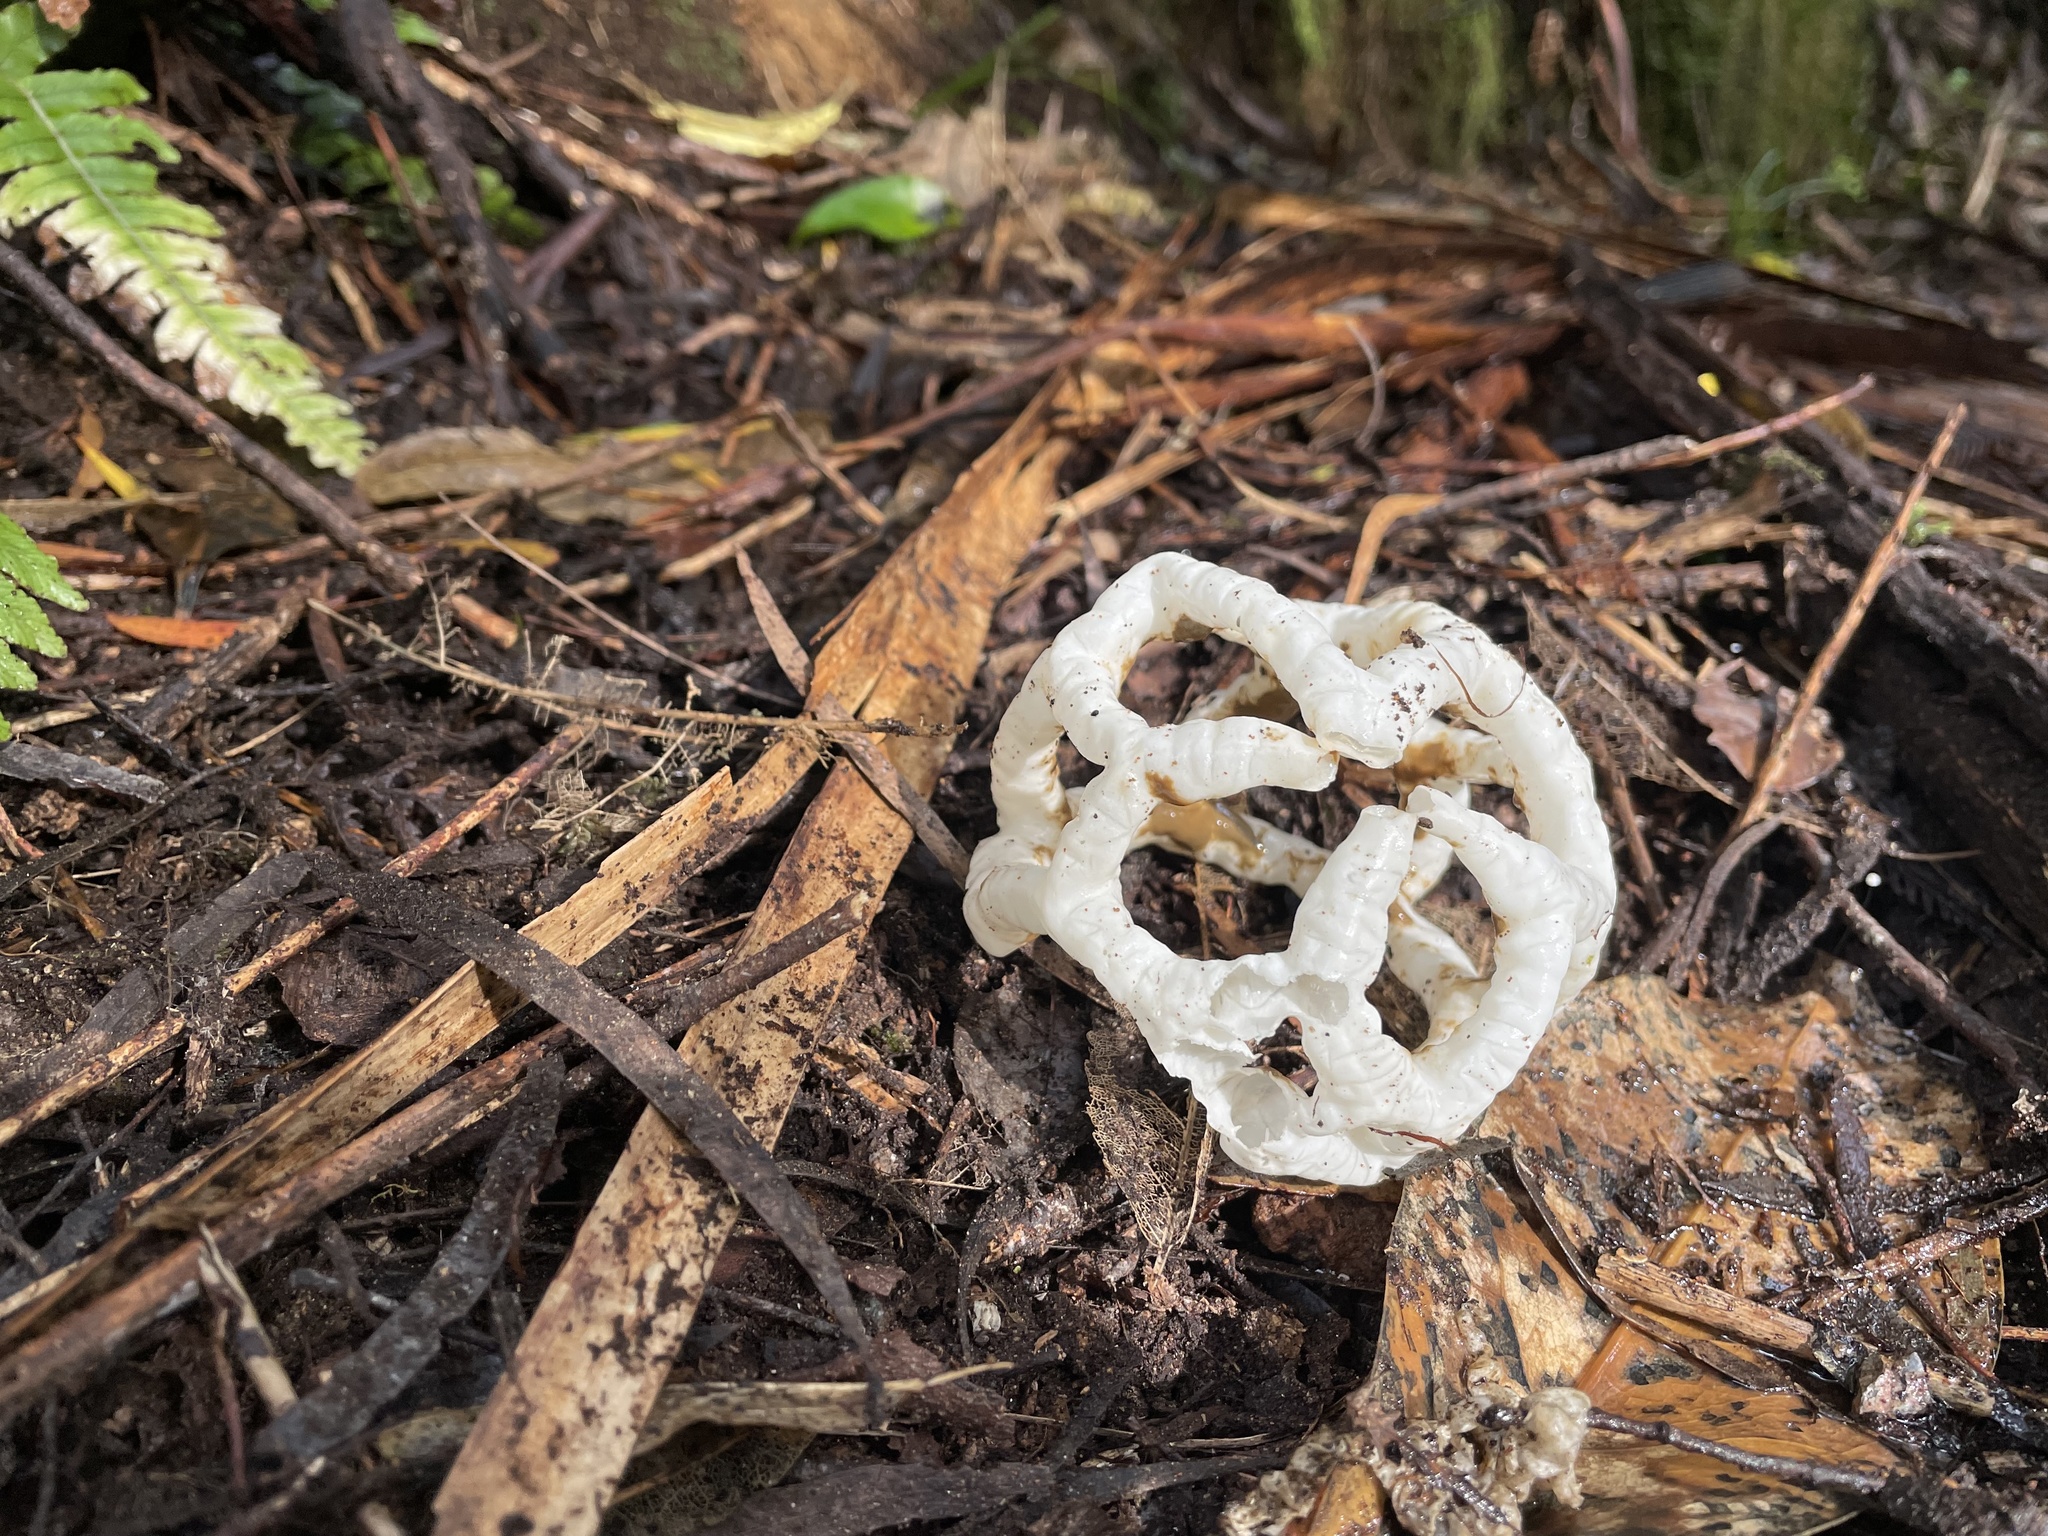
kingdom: Fungi
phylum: Basidiomycota
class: Agaricomycetes
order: Phallales
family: Phallaceae
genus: Ileodictyon
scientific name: Ileodictyon cibarium
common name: Basket fungus
